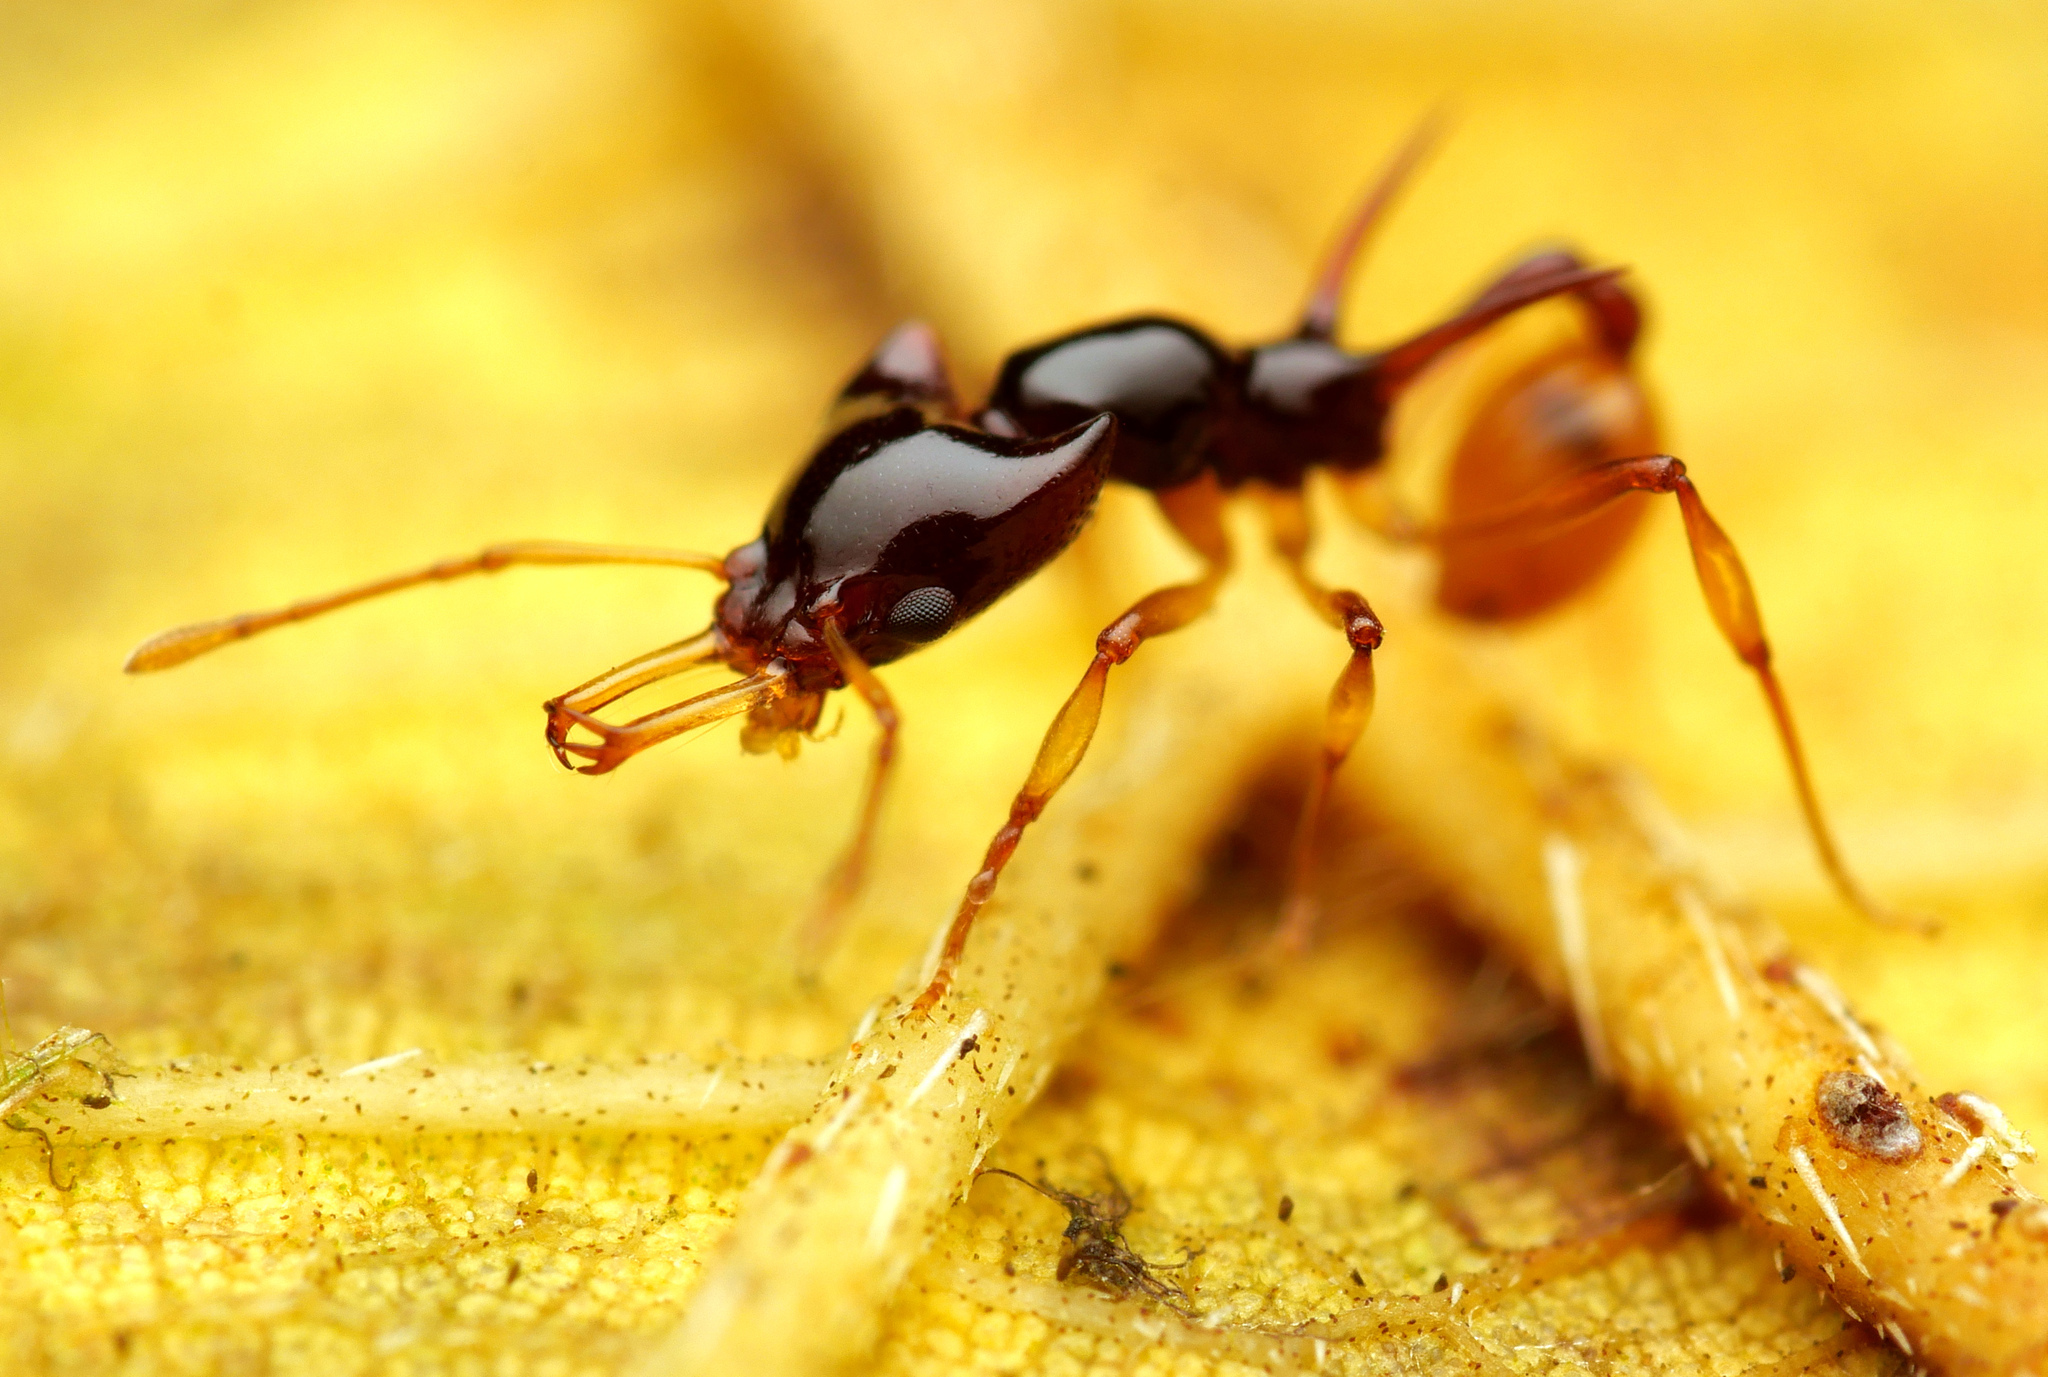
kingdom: Animalia
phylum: Arthropoda
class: Insecta
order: Hymenoptera
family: Formicidae
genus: Orectognathus
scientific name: Orectognathus szentivanyi
